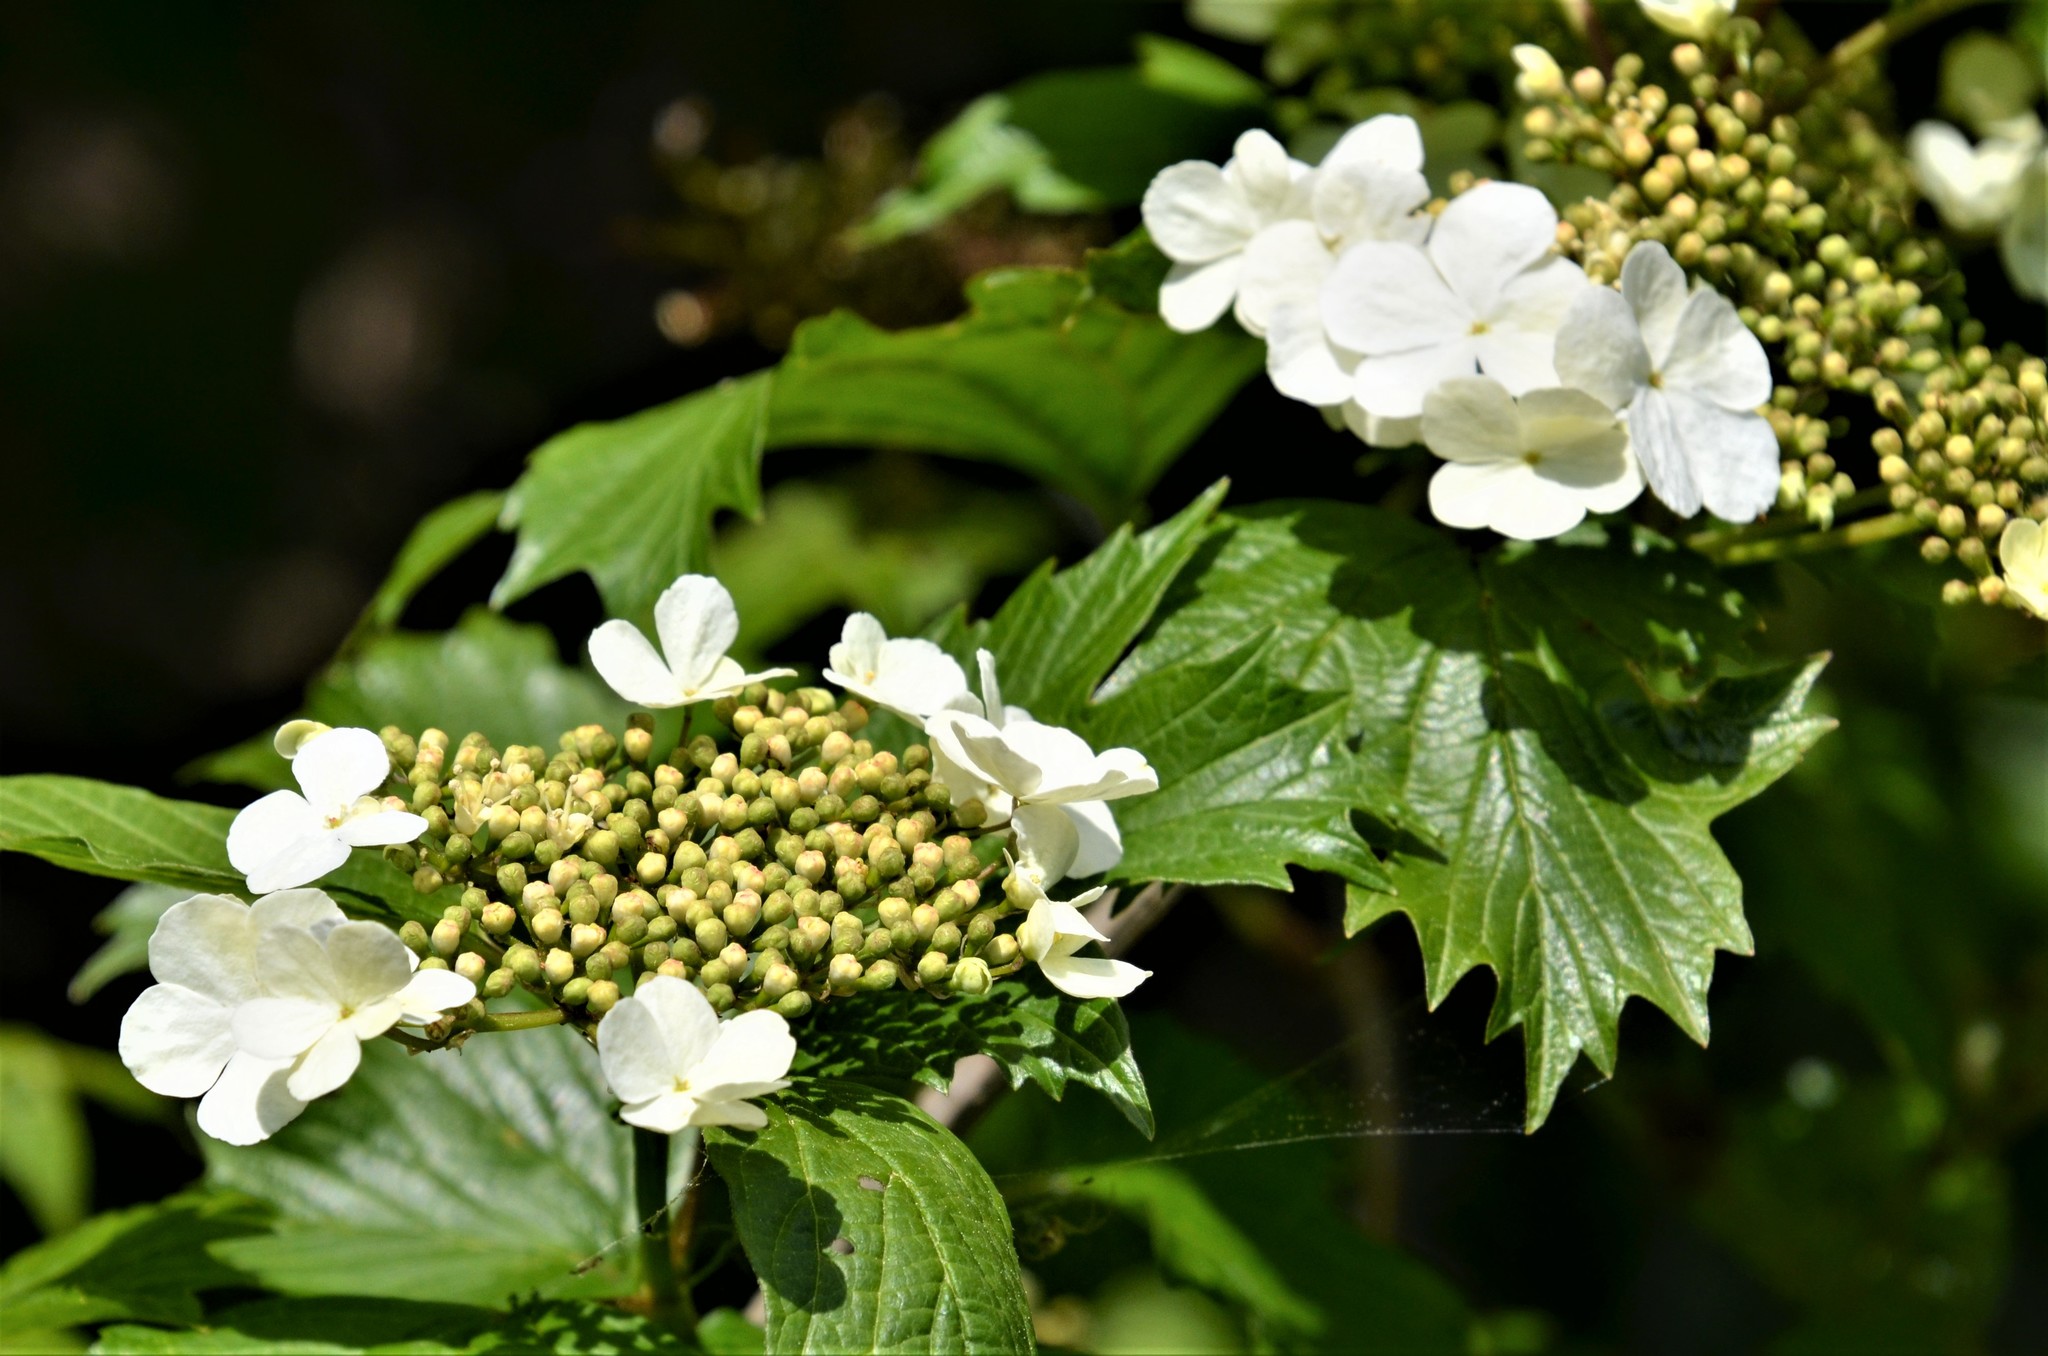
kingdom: Plantae
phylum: Tracheophyta
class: Magnoliopsida
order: Dipsacales
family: Viburnaceae
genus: Viburnum
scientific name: Viburnum opulus
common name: Guelder-rose
